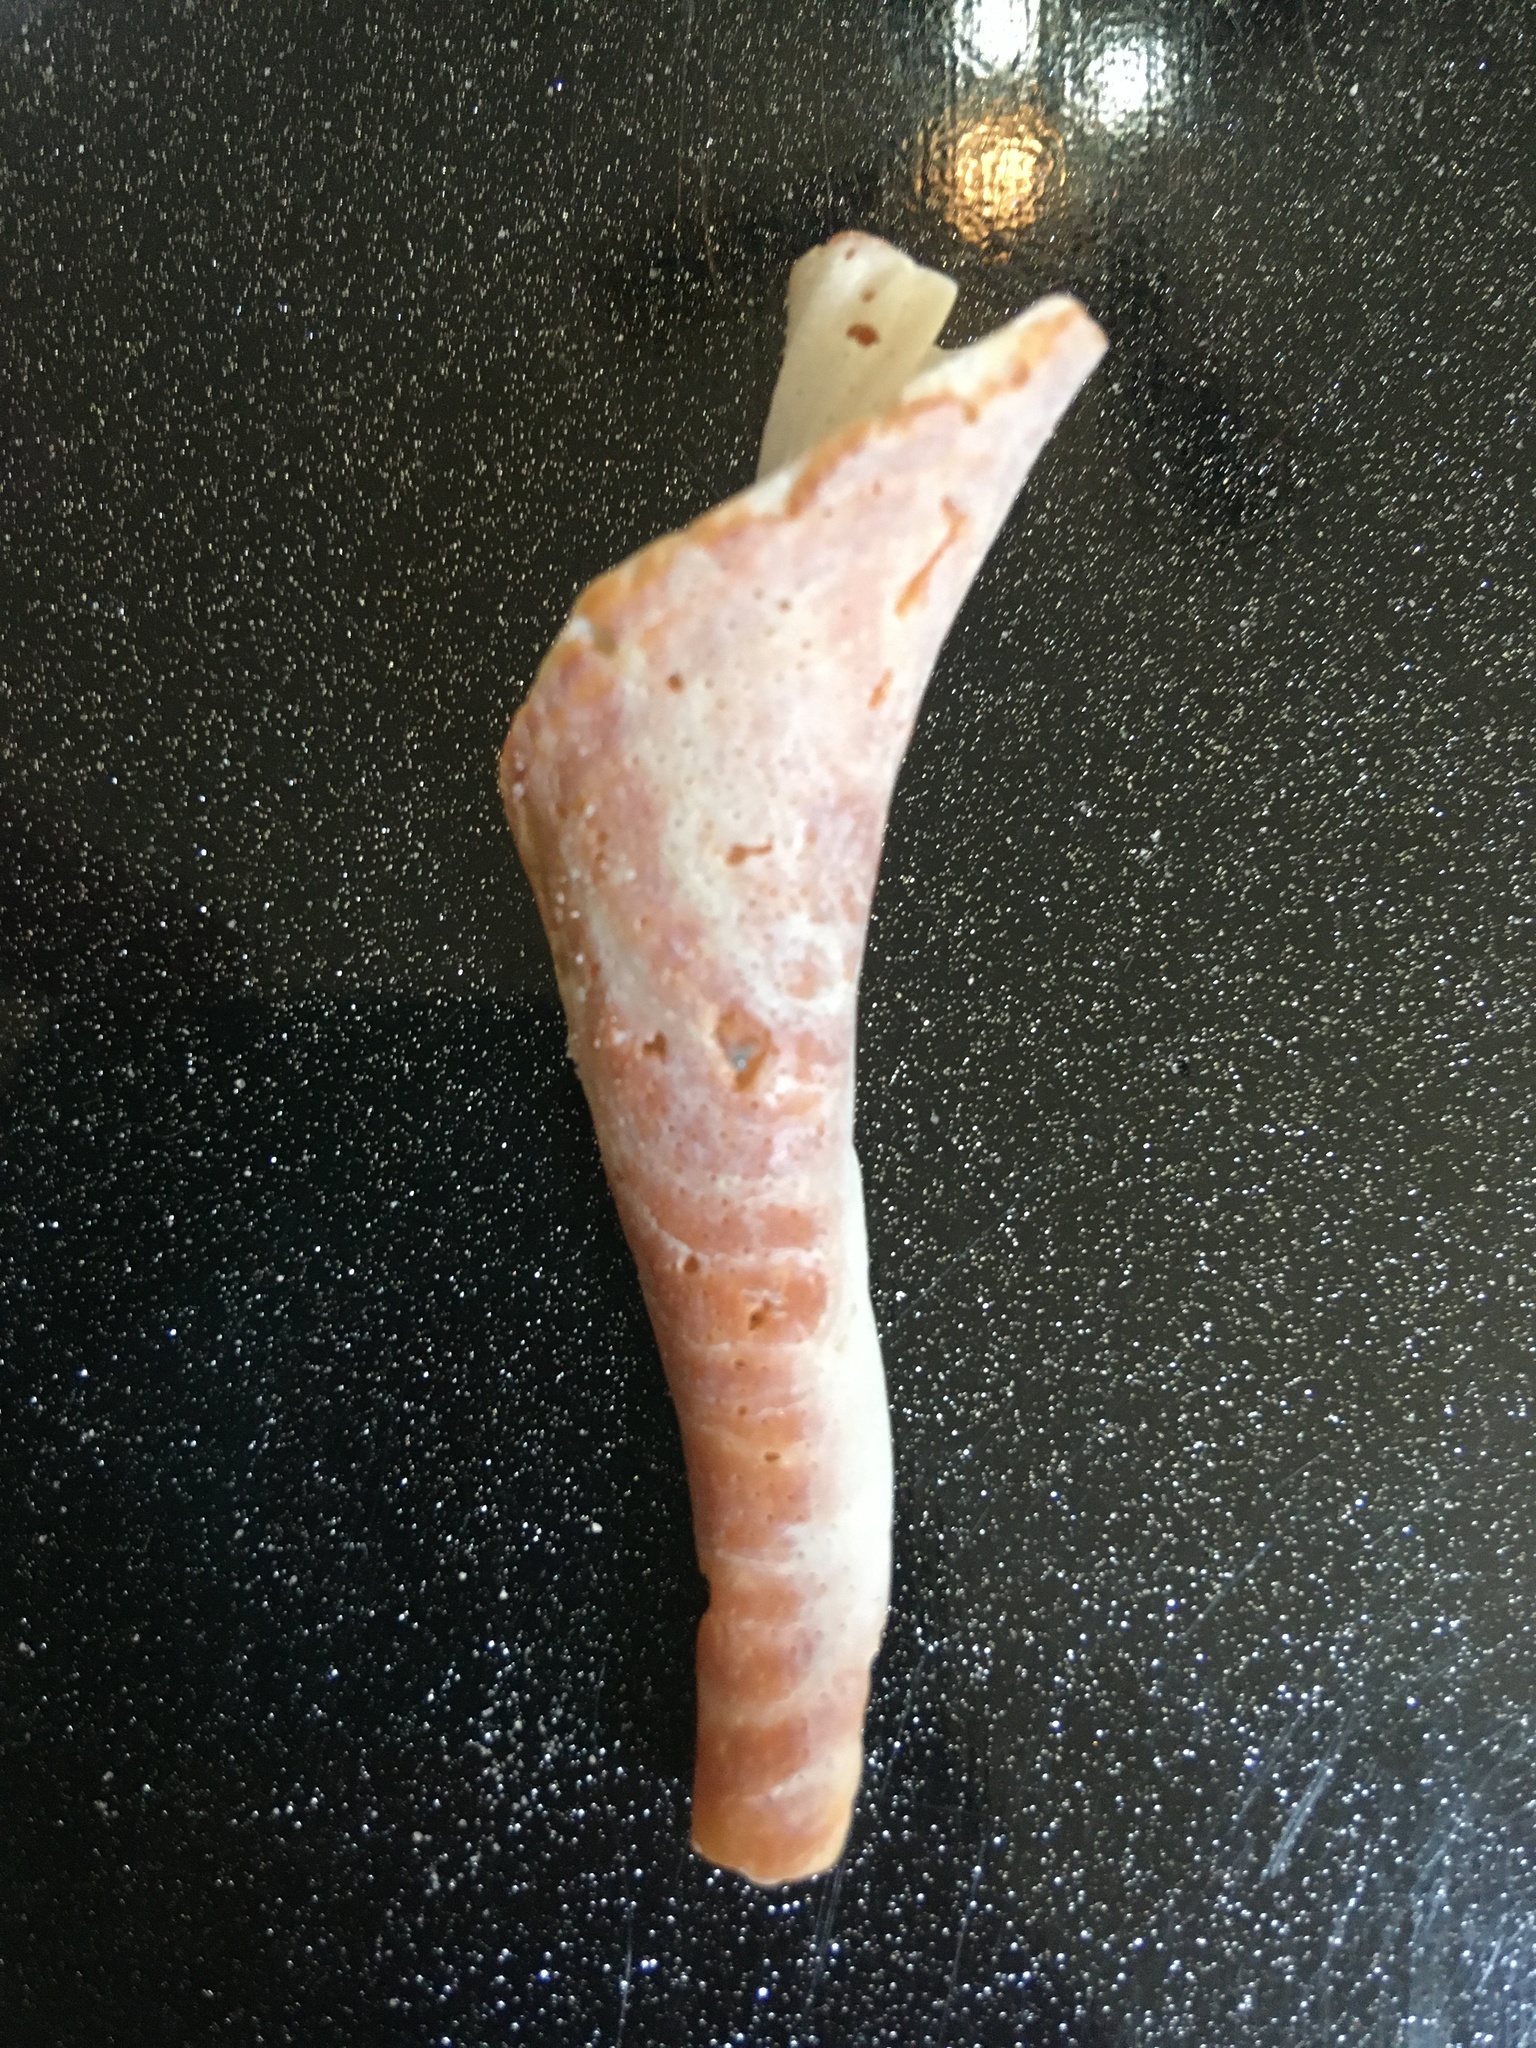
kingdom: Animalia
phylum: Mollusca
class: Gastropoda
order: Neogastropoda
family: Fasciolariidae
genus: Fasciolaria
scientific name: Fasciolaria tulipa
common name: True tulip
